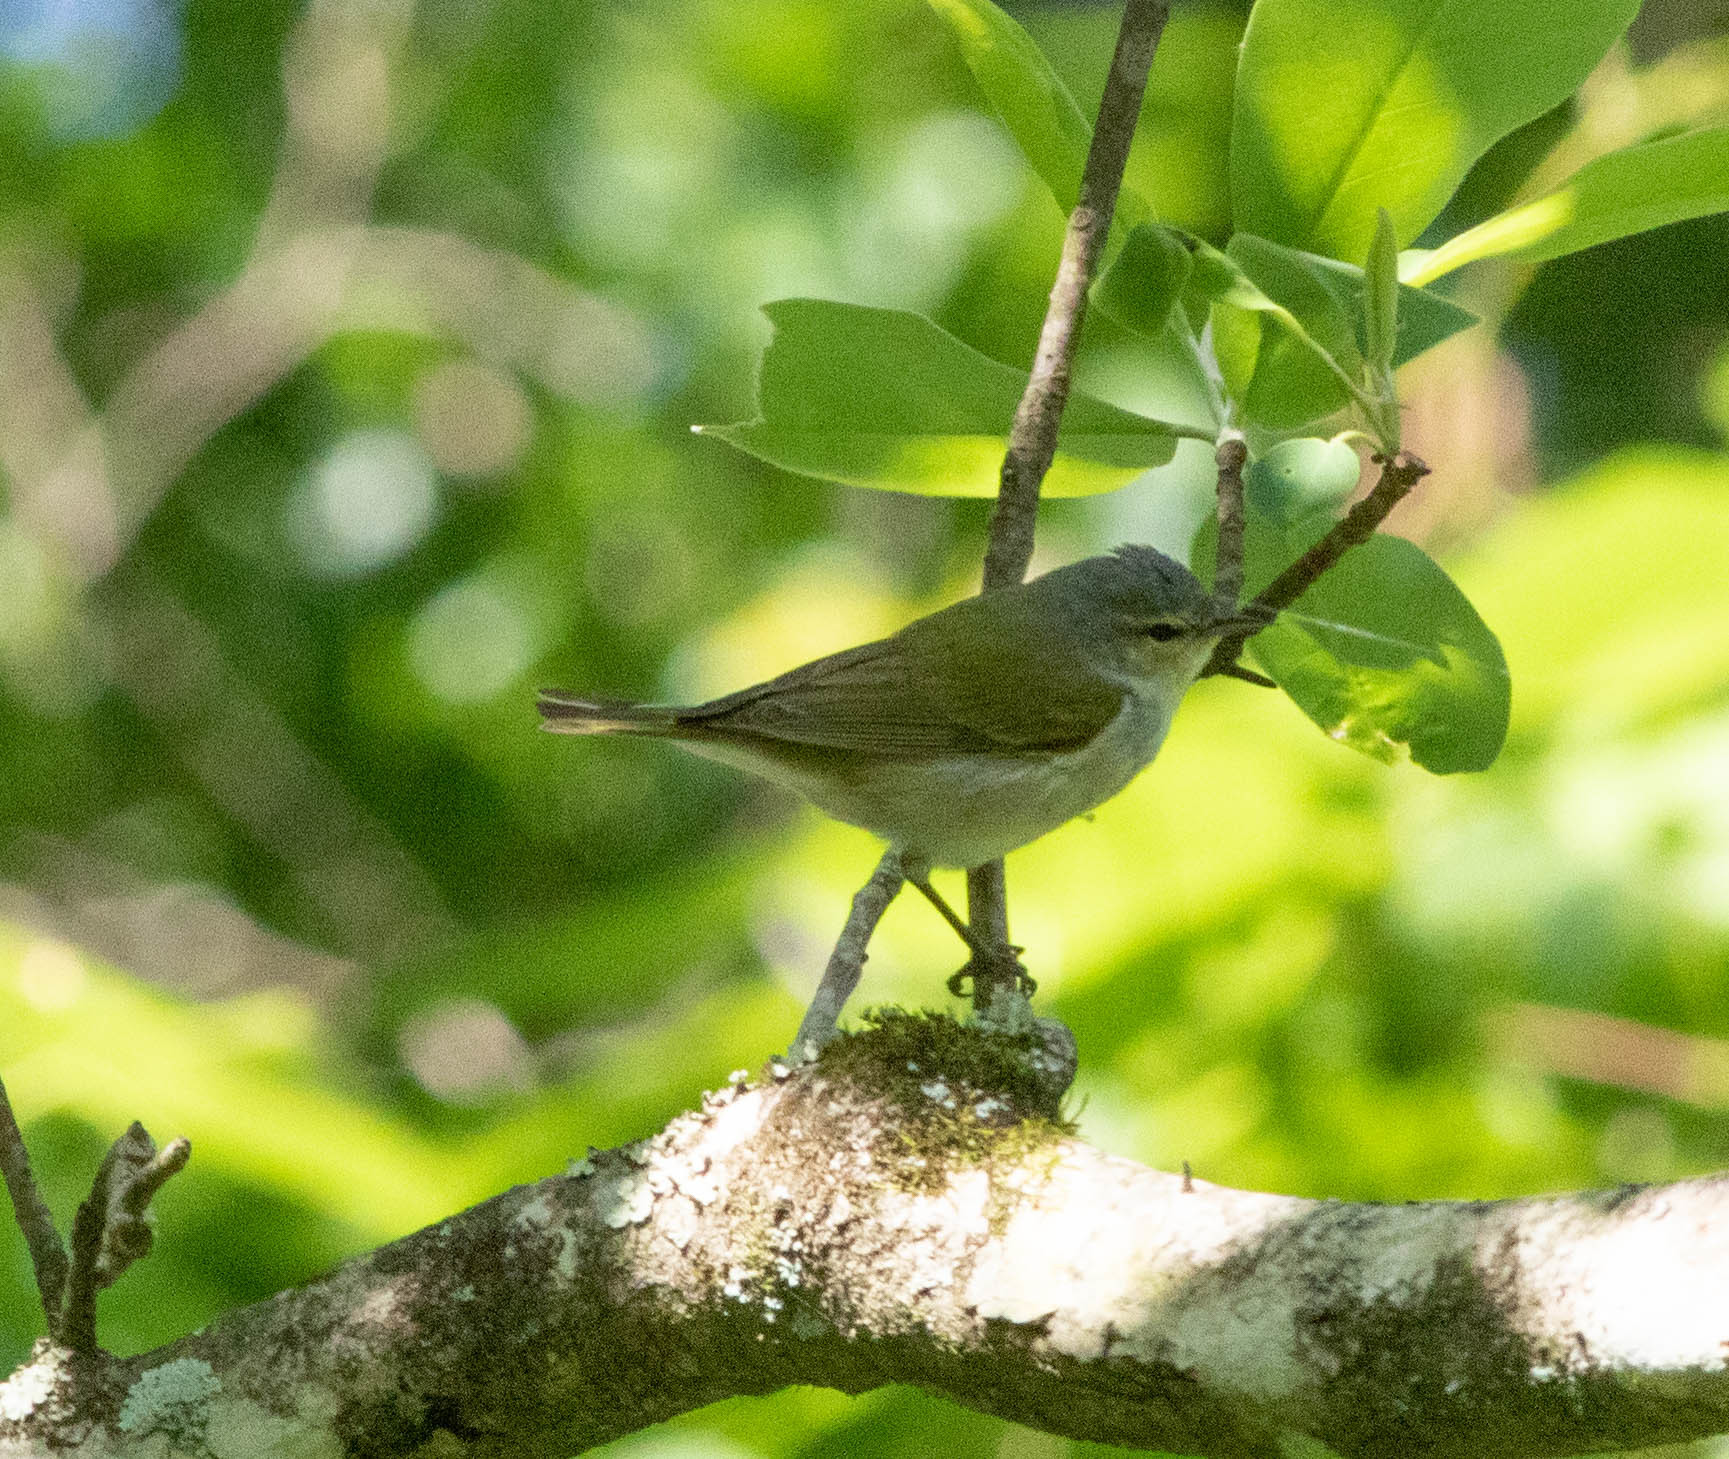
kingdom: Animalia
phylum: Chordata
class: Aves
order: Passeriformes
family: Parulidae
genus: Leiothlypis
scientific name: Leiothlypis peregrina
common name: Tennessee warbler
